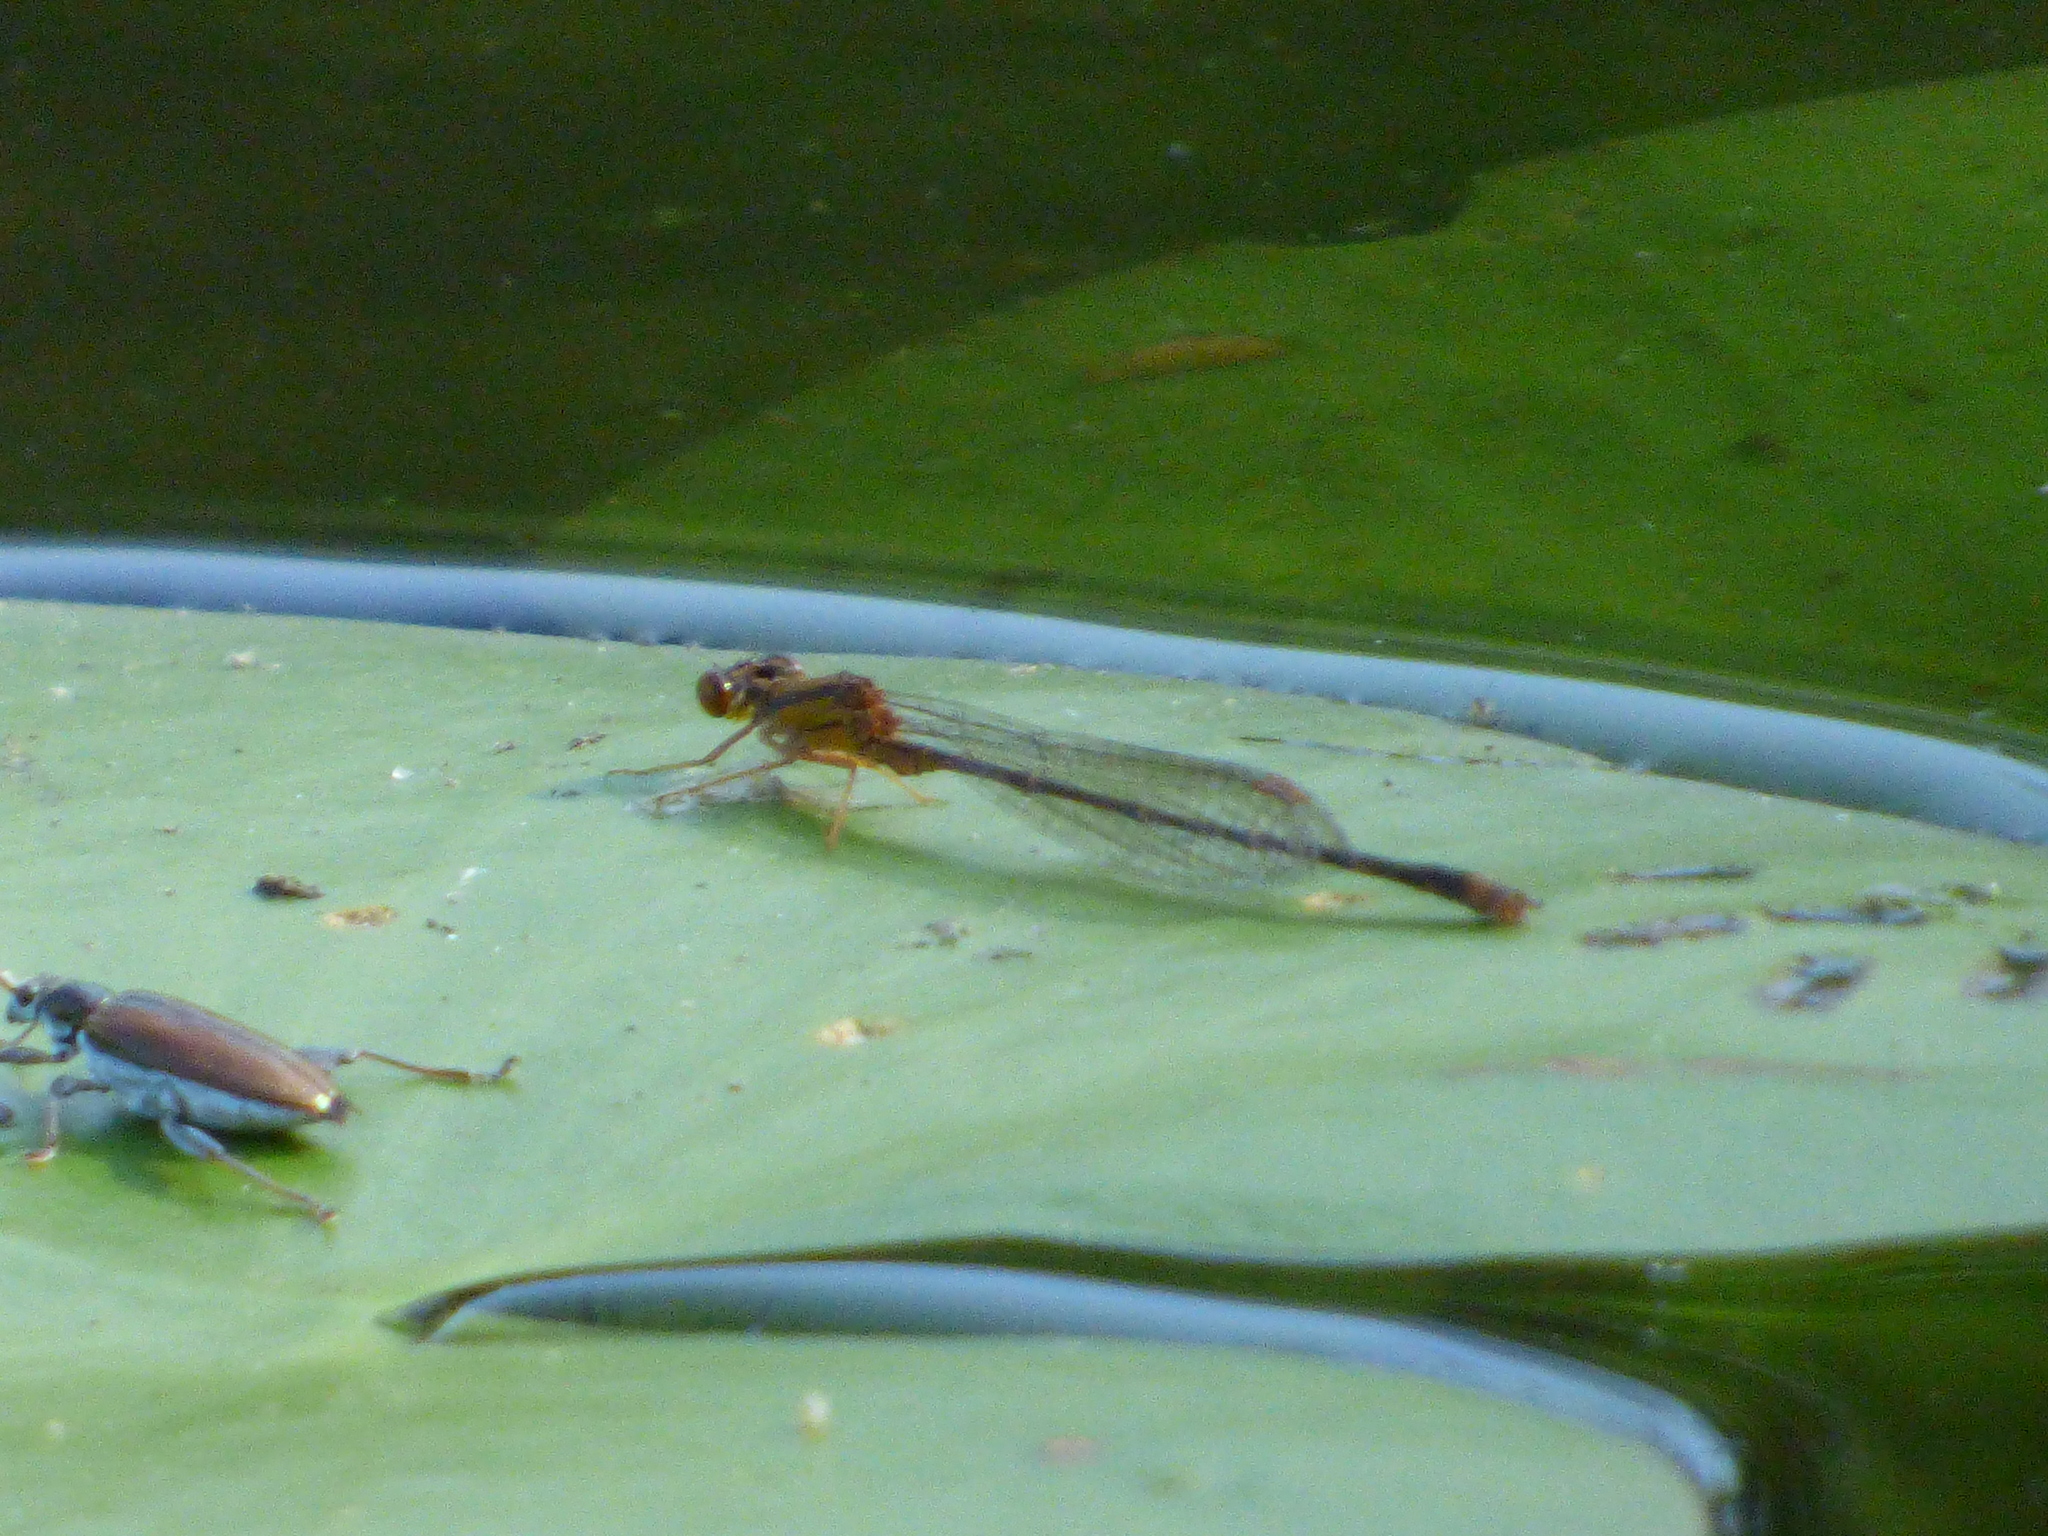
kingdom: Animalia
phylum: Arthropoda
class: Insecta
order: Odonata
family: Coenagrionidae
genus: Enallagma
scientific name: Enallagma signatum
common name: Orange bluet
